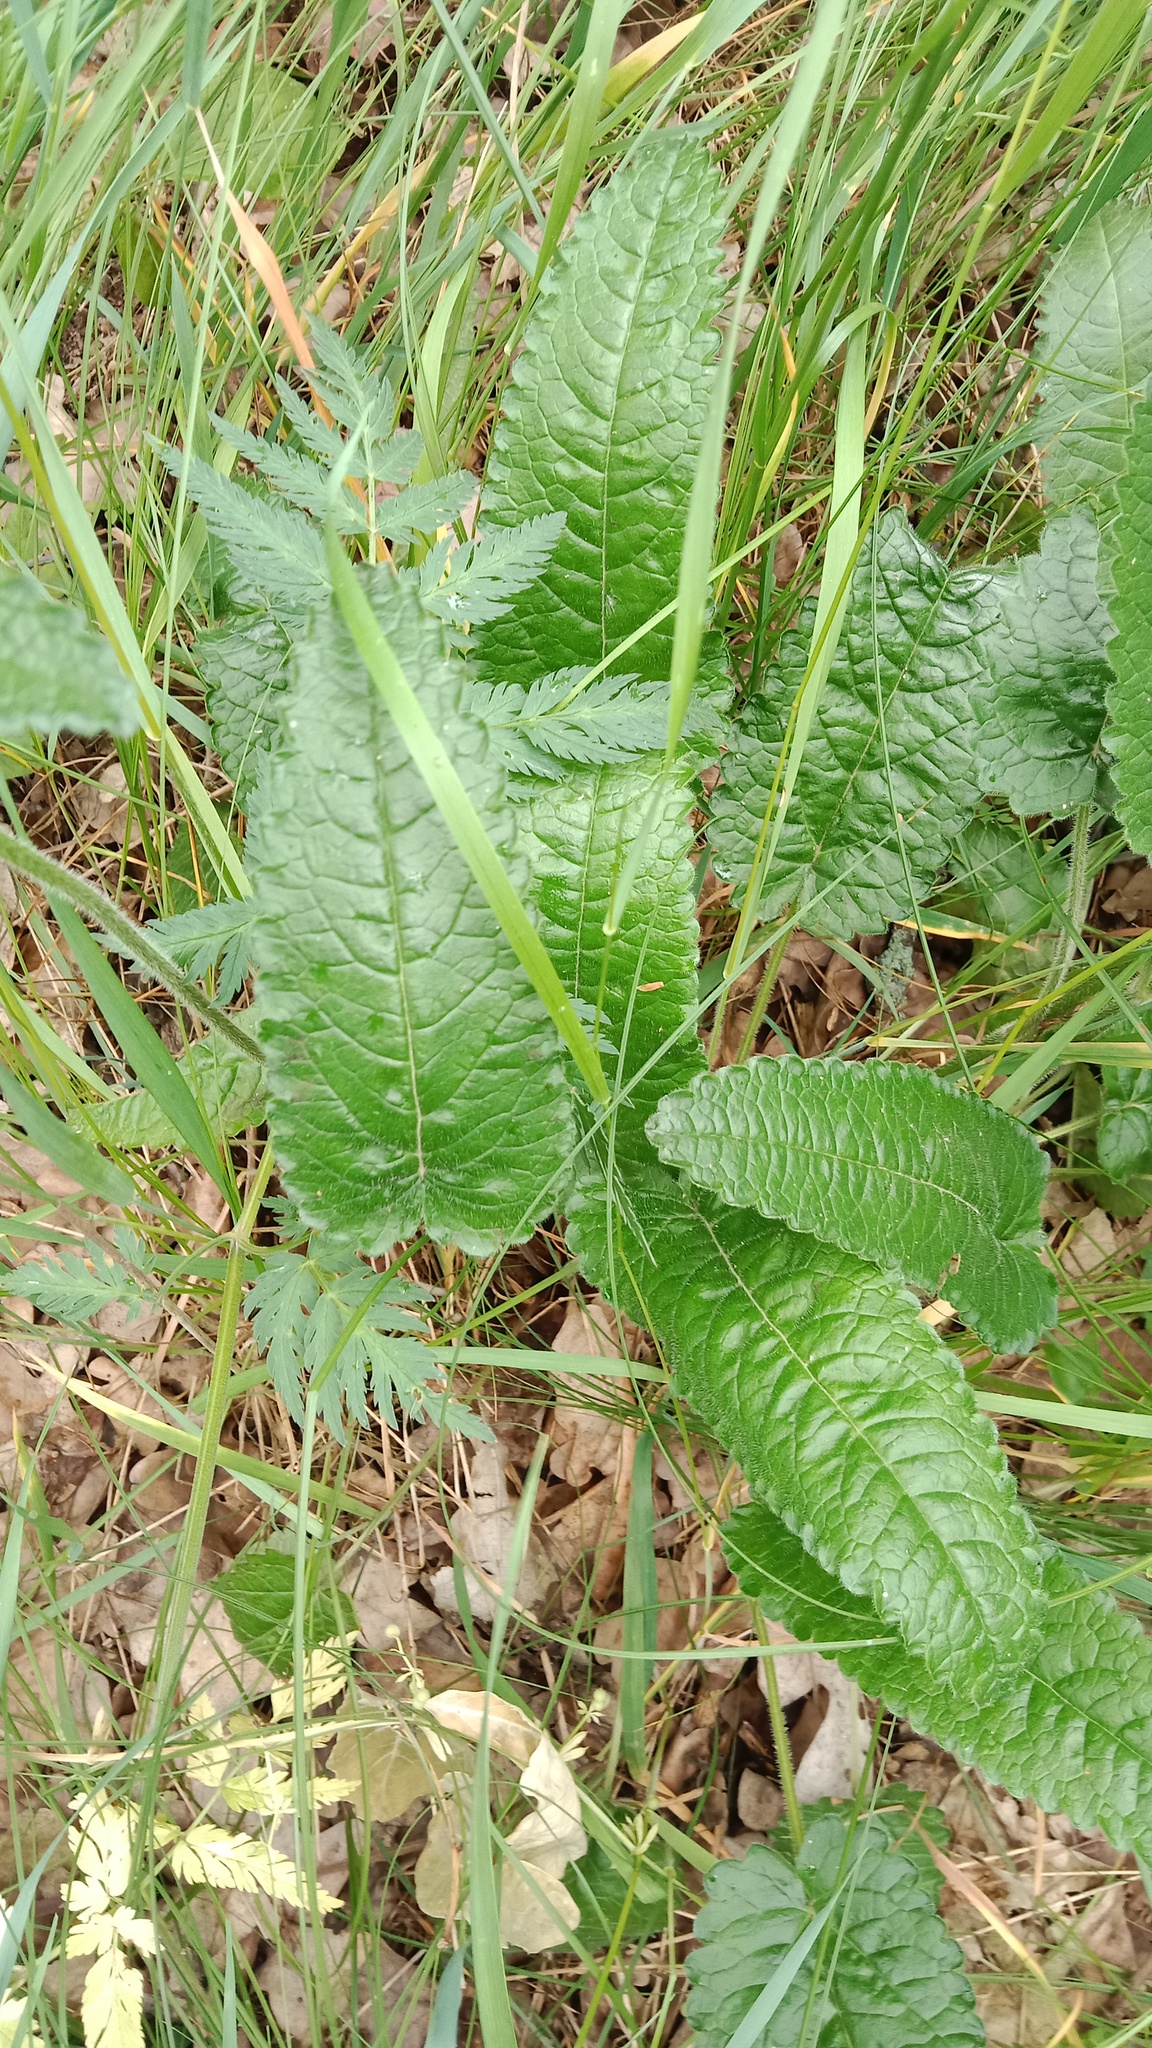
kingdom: Plantae
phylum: Tracheophyta
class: Magnoliopsida
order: Lamiales
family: Lamiaceae
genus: Betonica
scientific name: Betonica officinalis
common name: Bishop's-wort
